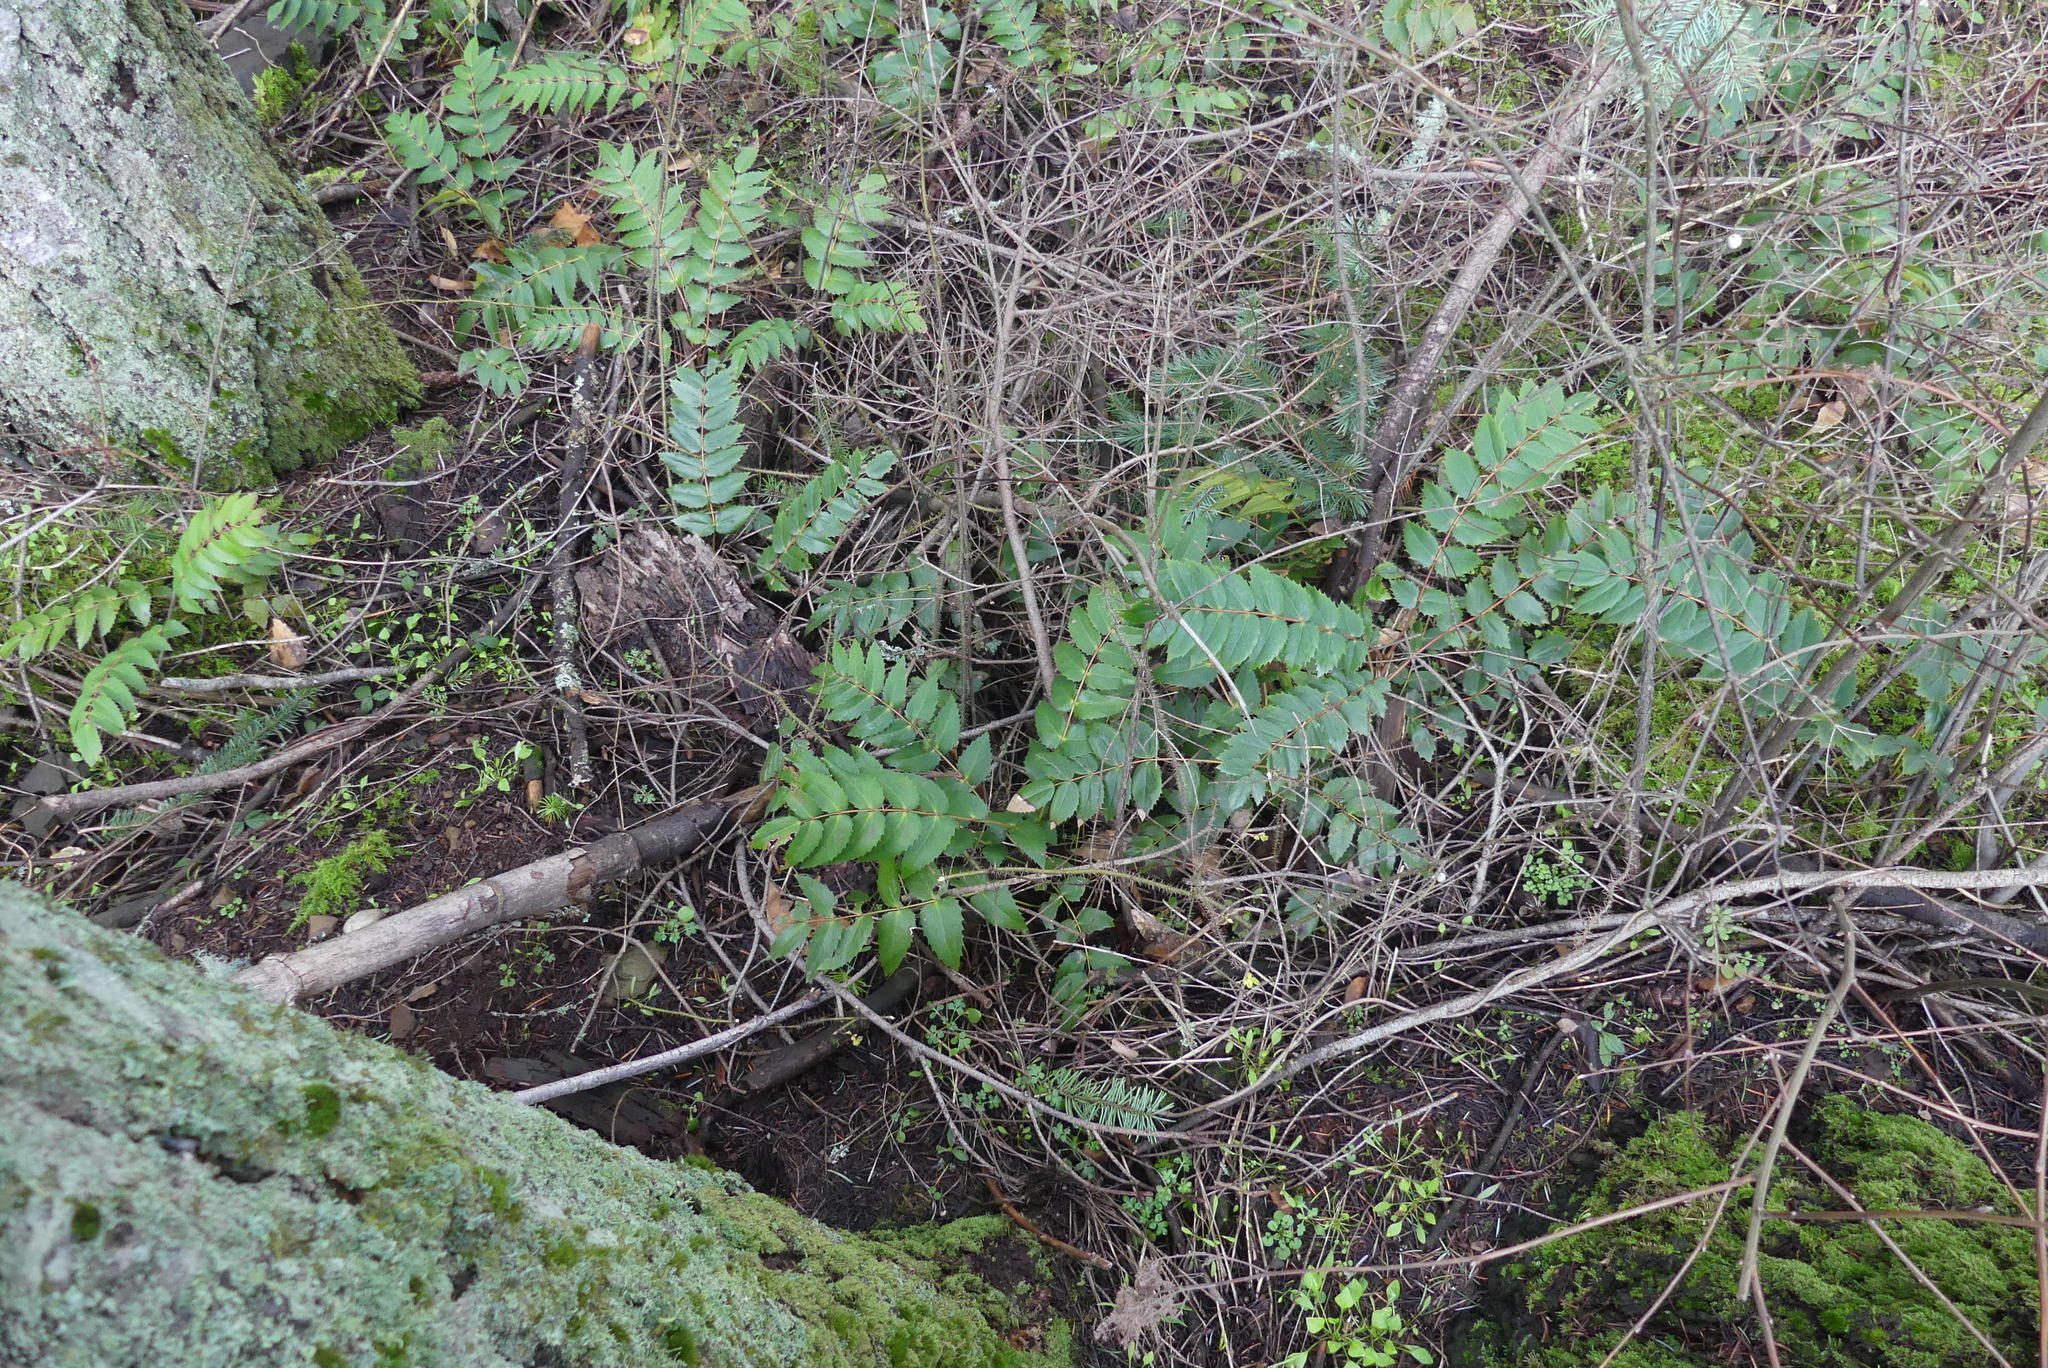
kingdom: Plantae
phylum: Tracheophyta
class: Magnoliopsida
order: Ranunculales
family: Berberidaceae
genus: Mahonia
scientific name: Mahonia nervosa
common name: Cascade oregon-grape
